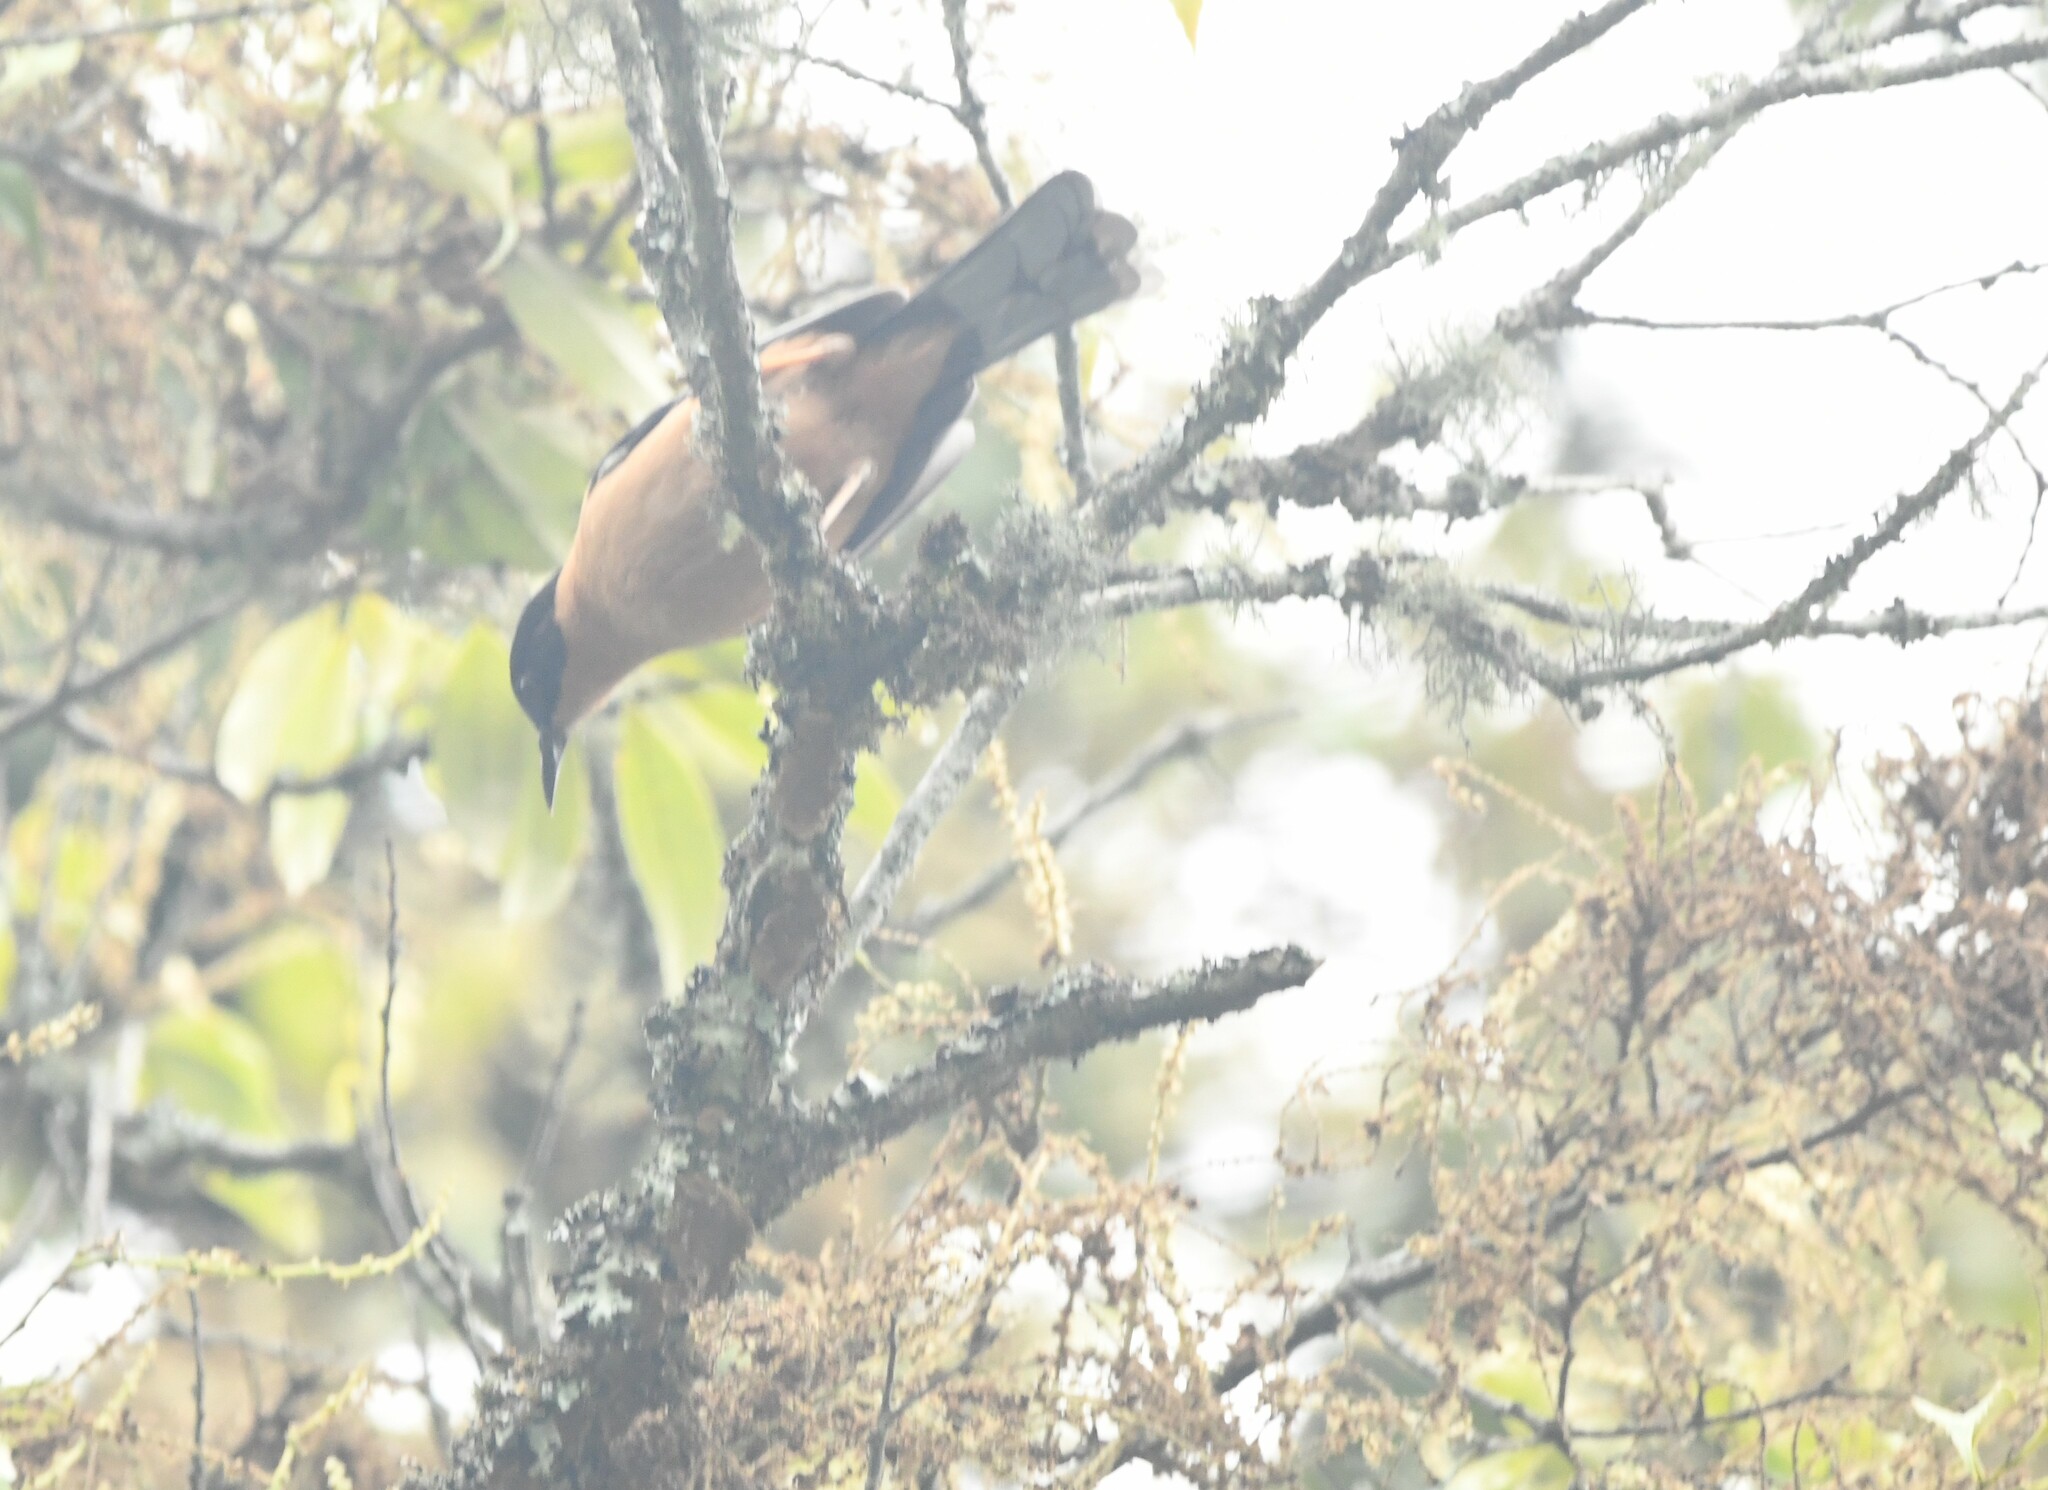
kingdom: Animalia
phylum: Chordata
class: Aves
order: Passeriformes
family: Leiothrichidae
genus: Heterophasia
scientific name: Heterophasia capistrata
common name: Rufous sibia
